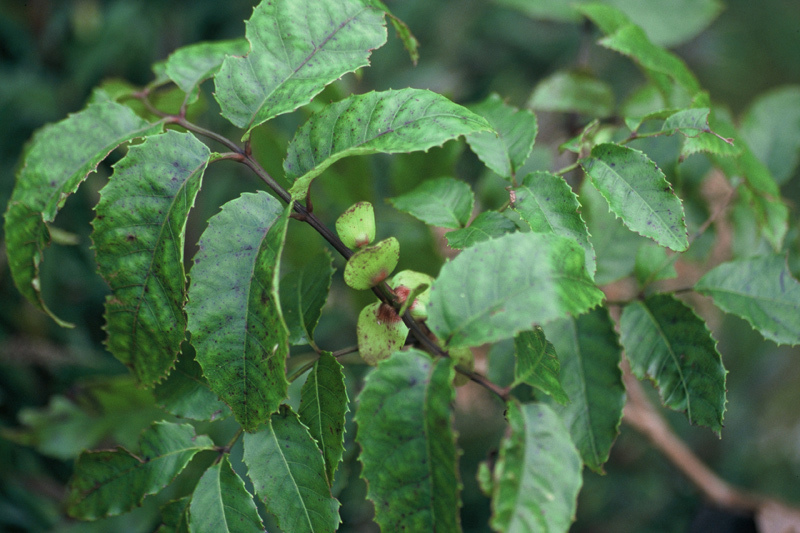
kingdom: Plantae
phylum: Tracheophyta
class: Magnoliopsida
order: Oxalidales
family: Cunoniaceae
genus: Ackama
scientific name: Ackama nubicola
